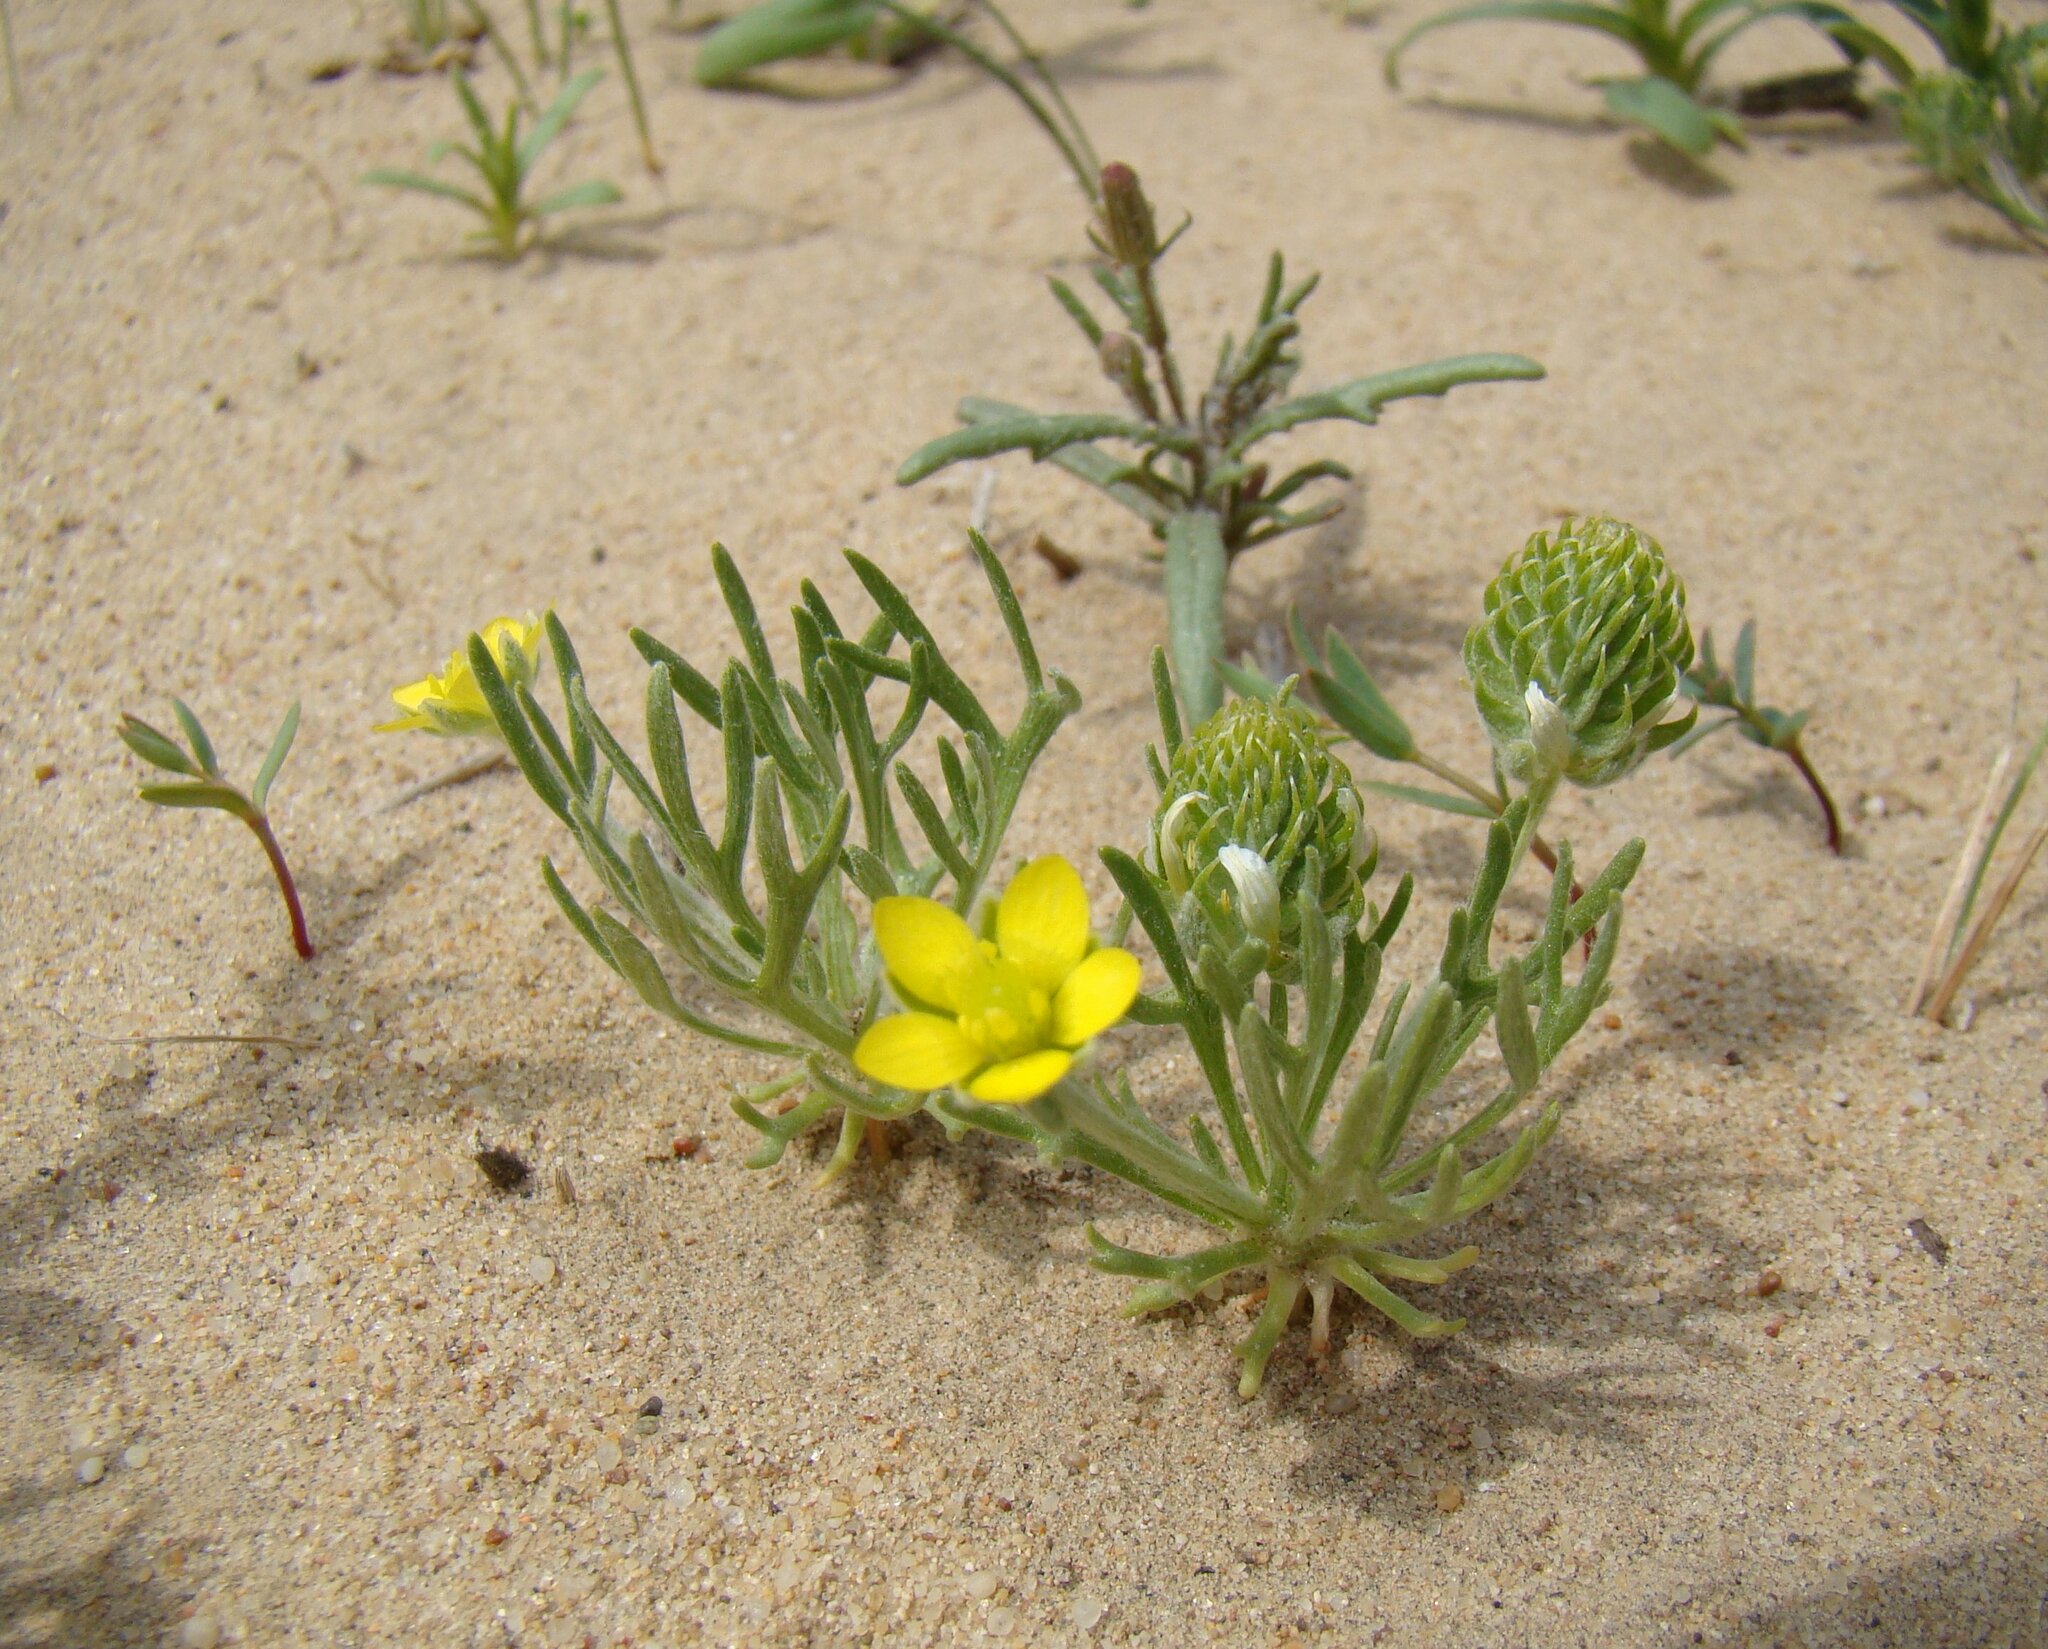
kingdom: Plantae
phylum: Tracheophyta
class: Magnoliopsida
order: Ranunculales
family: Ranunculaceae
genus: Ceratocephala
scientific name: Ceratocephala falcata
